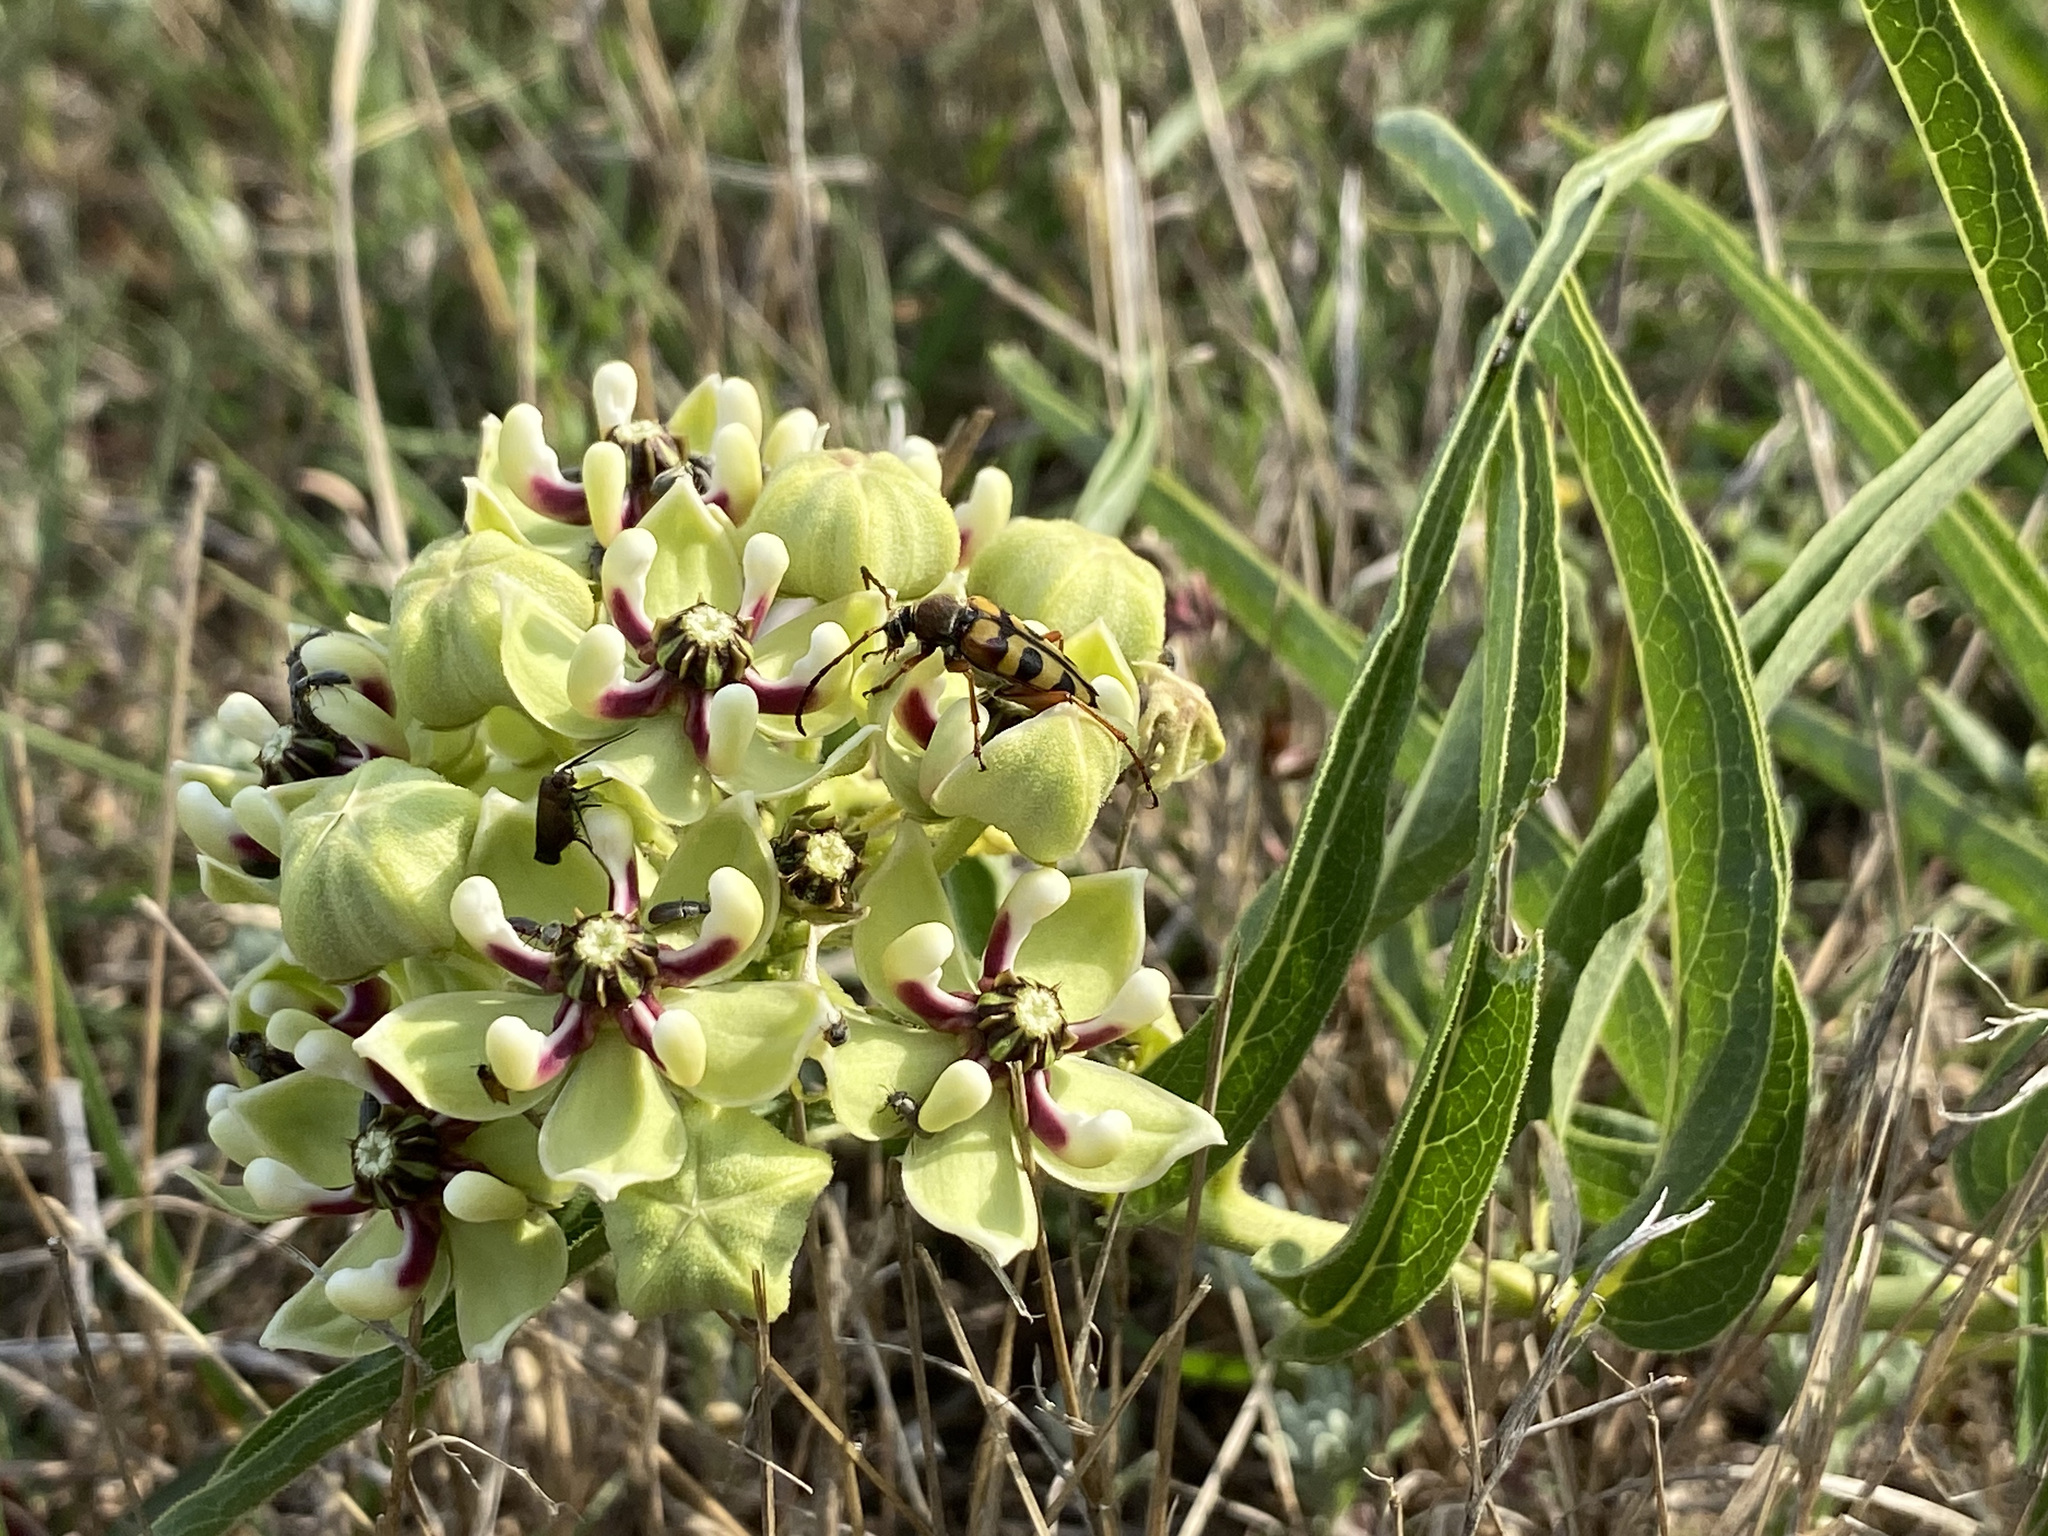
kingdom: Plantae
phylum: Tracheophyta
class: Magnoliopsida
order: Gentianales
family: Apocynaceae
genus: Asclepias
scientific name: Asclepias asperula
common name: Antelope horns
